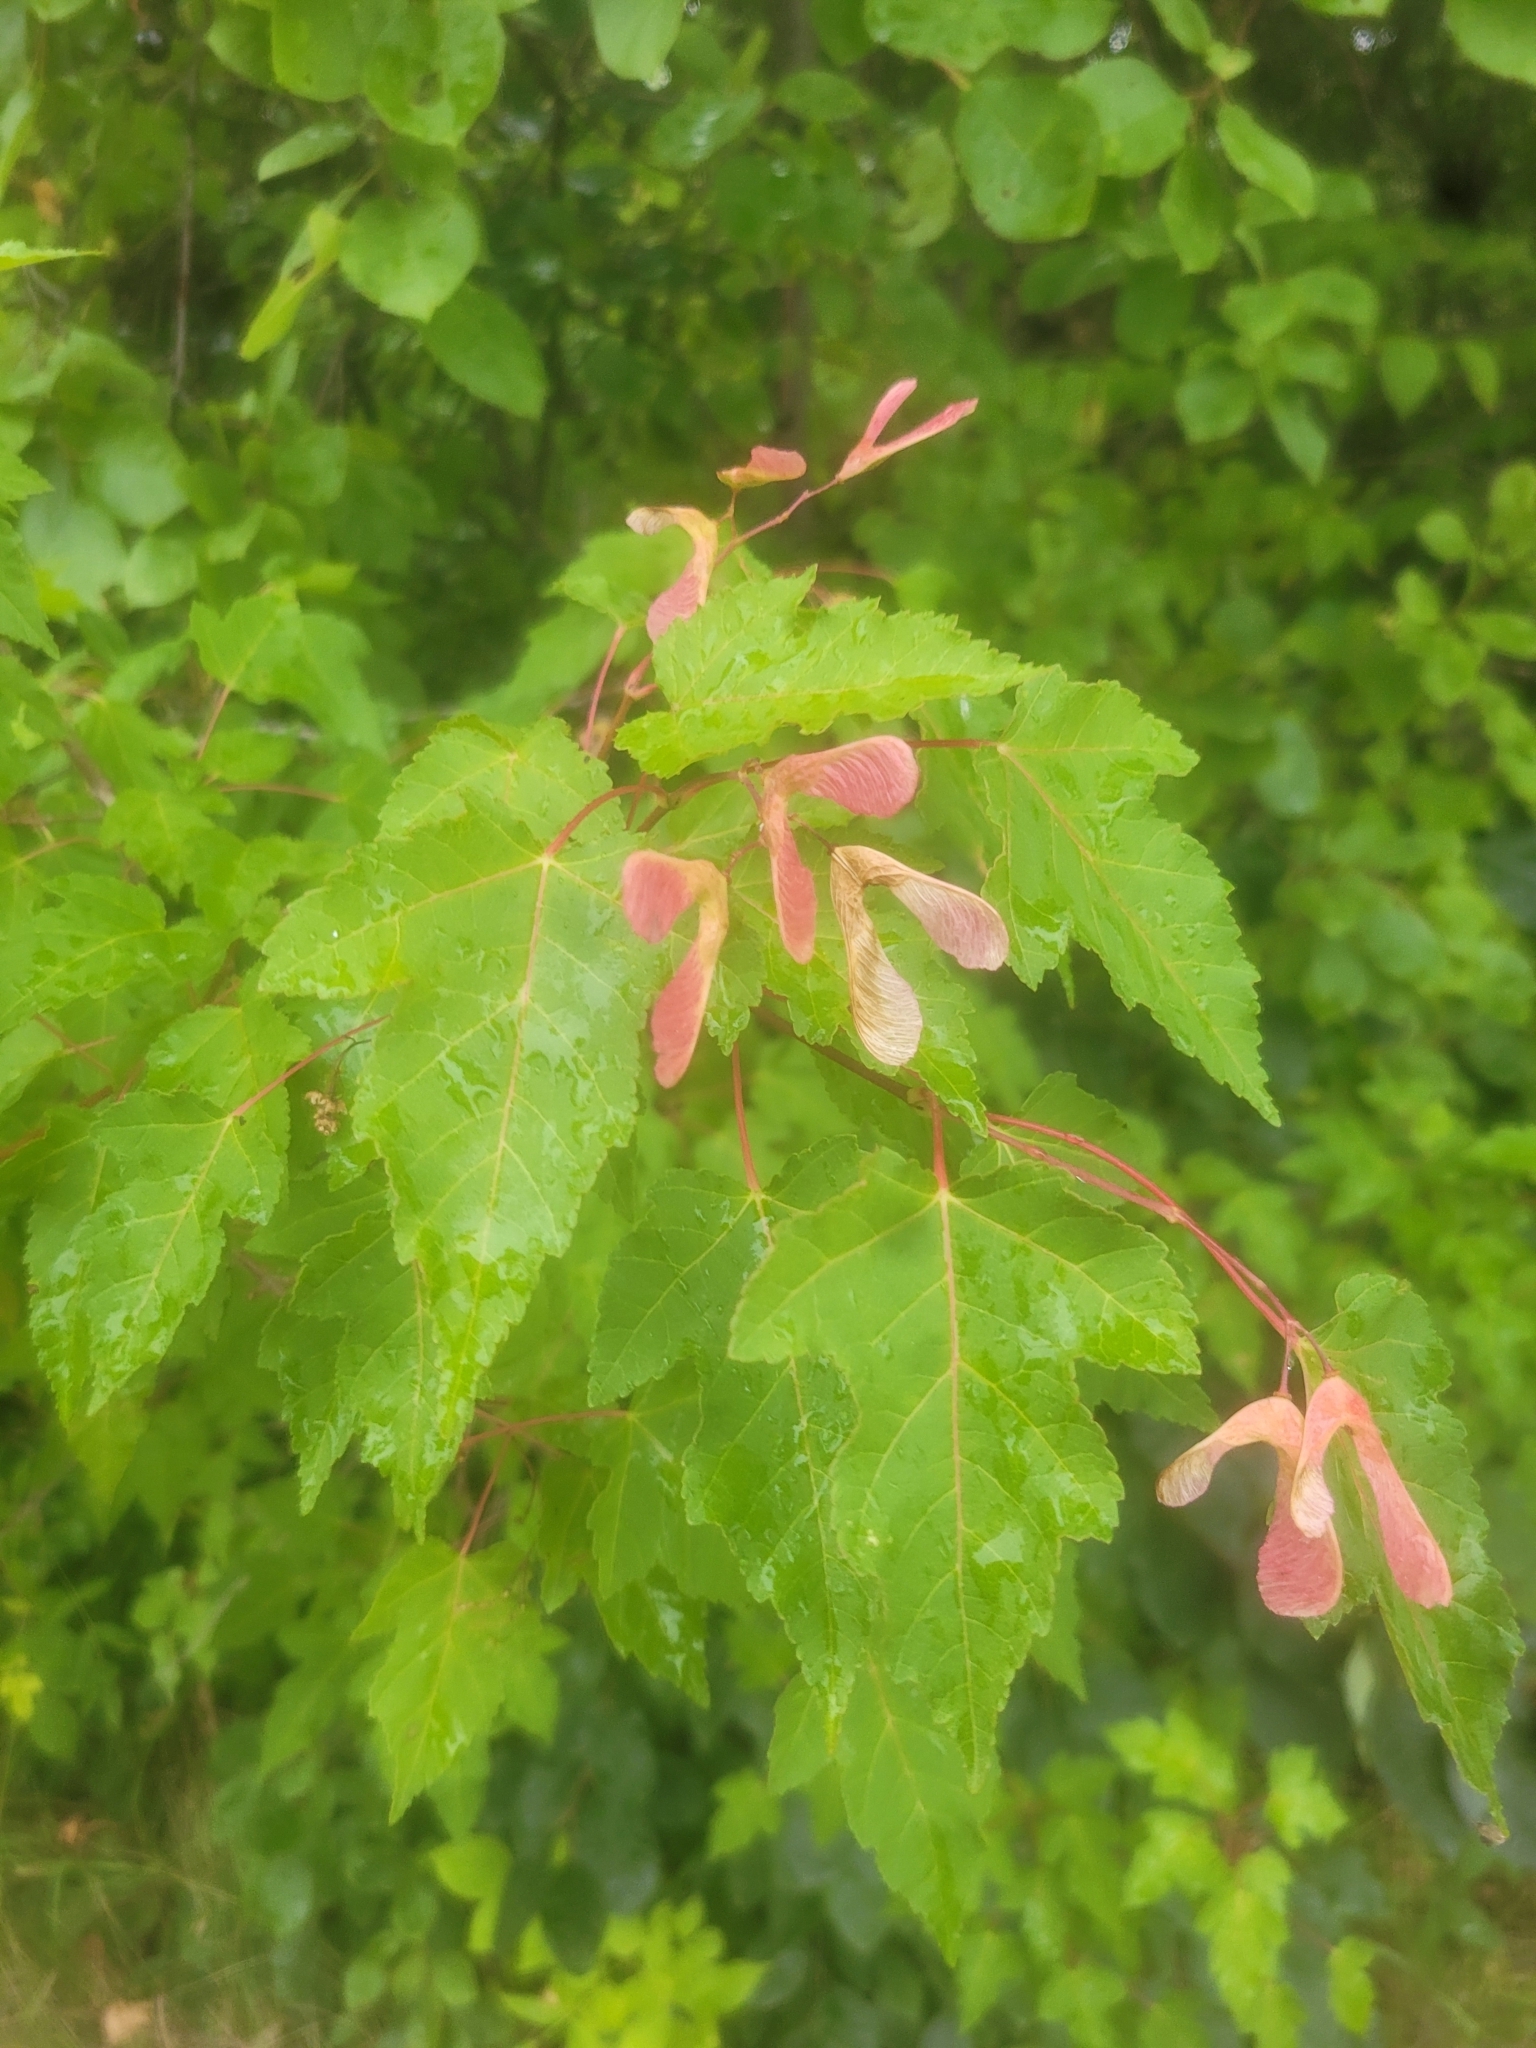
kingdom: Plantae
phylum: Tracheophyta
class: Magnoliopsida
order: Sapindales
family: Sapindaceae
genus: Acer
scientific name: Acer tataricum
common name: Tartar maple
